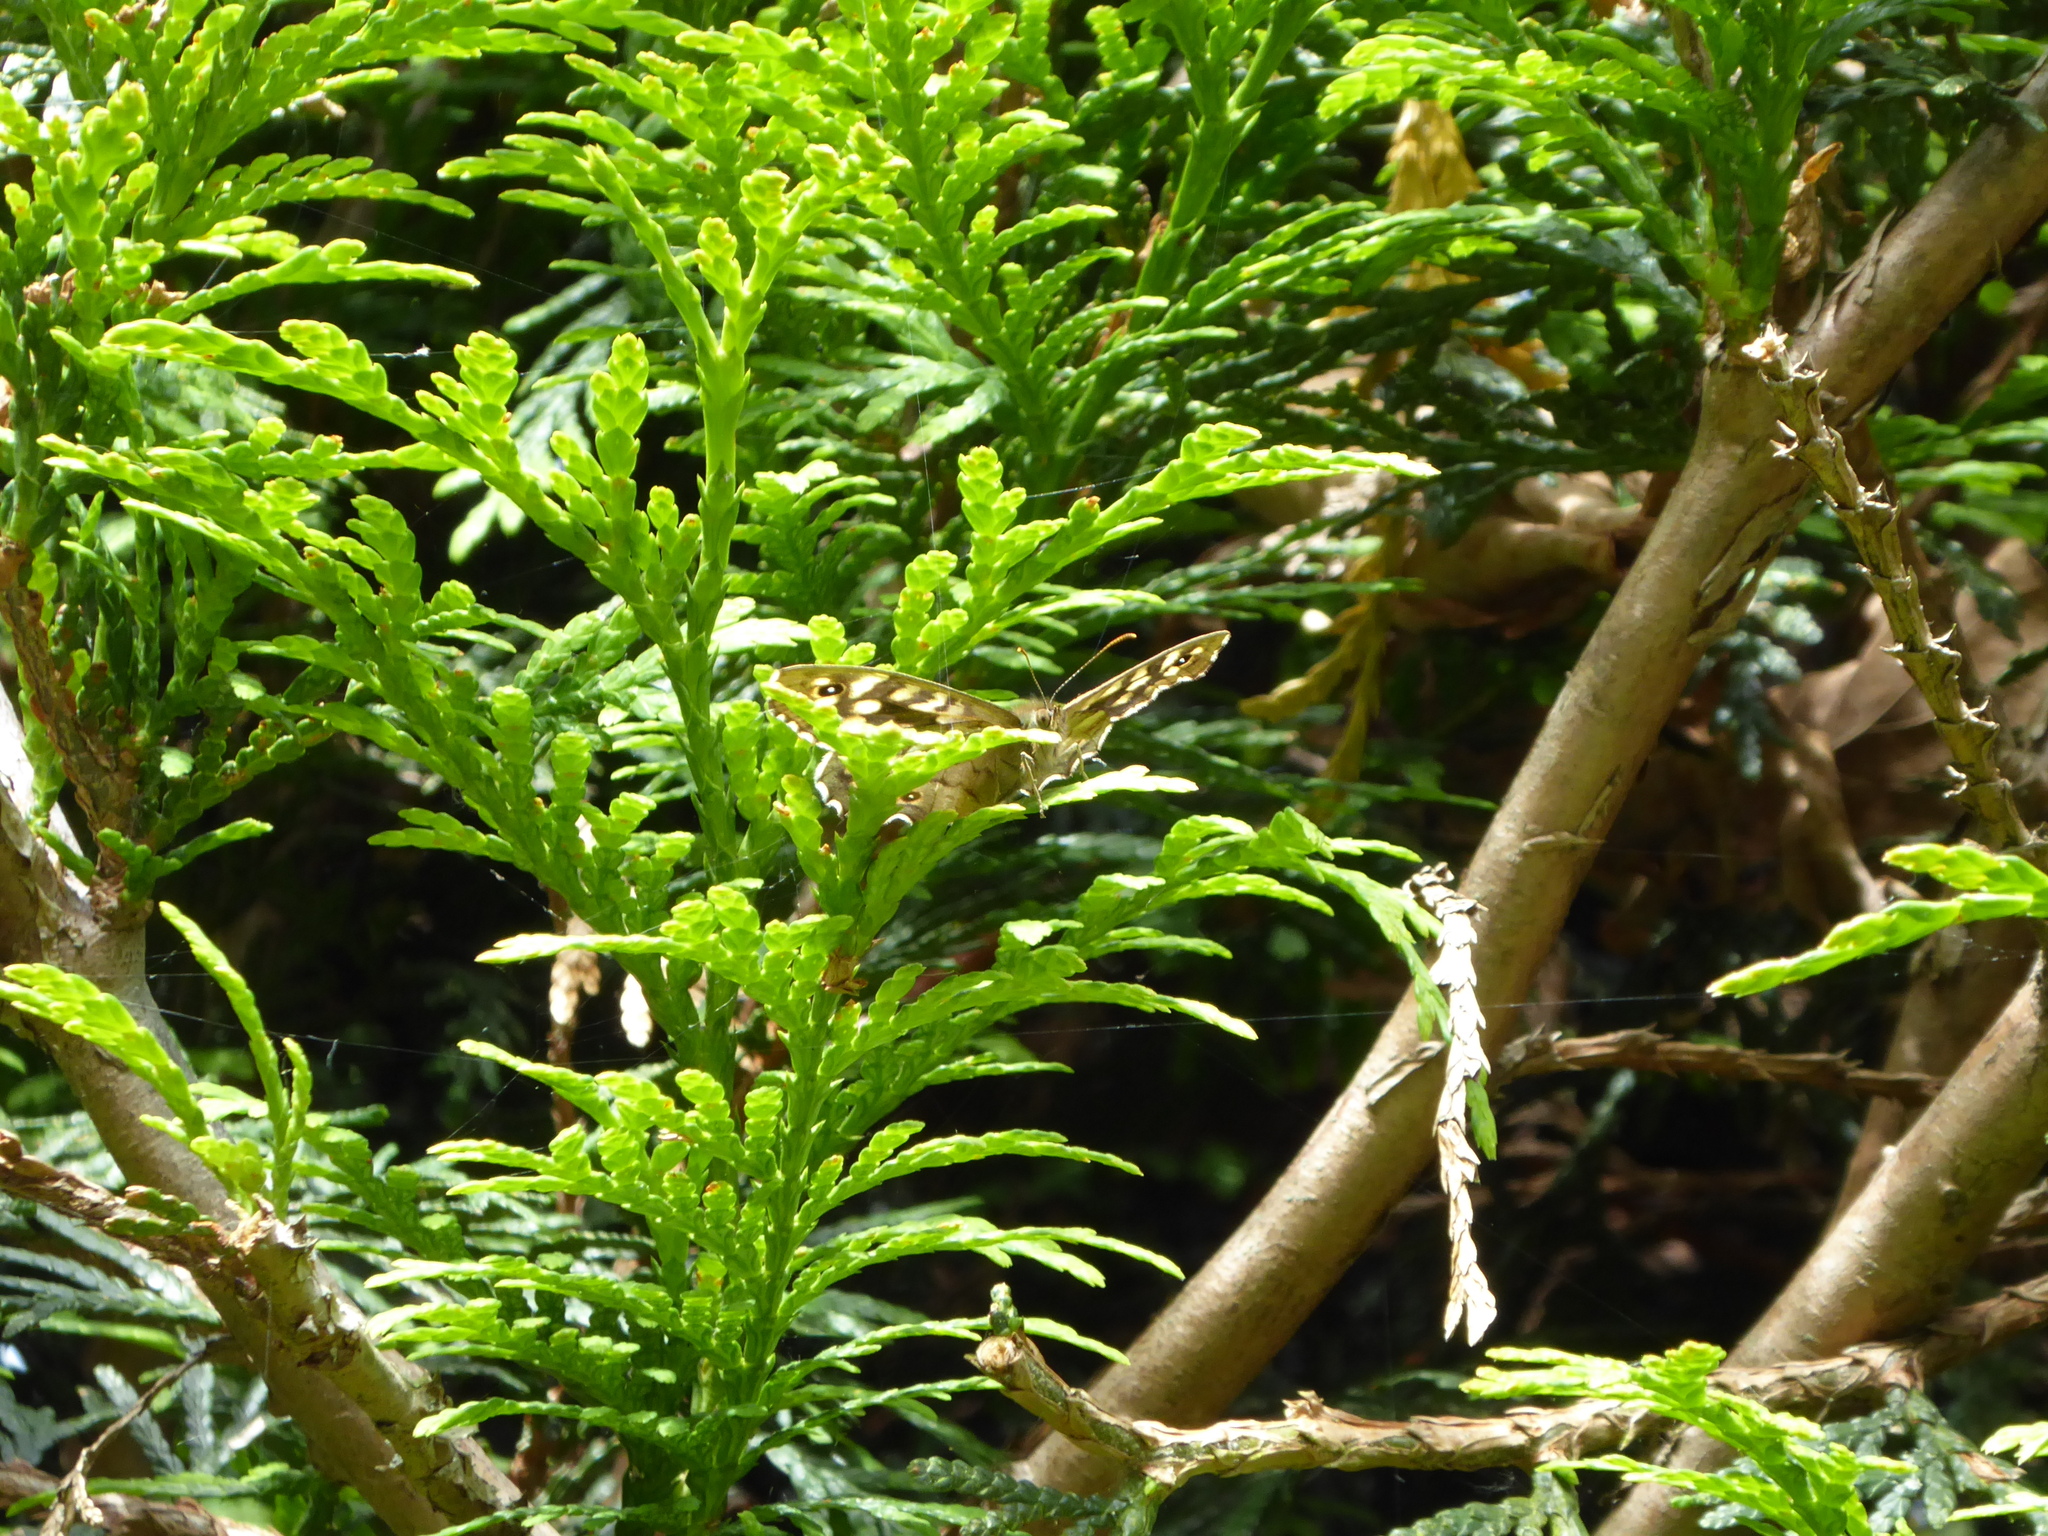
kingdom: Animalia
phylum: Arthropoda
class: Insecta
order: Lepidoptera
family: Nymphalidae
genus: Pararge
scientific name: Pararge aegeria
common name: Speckled wood
